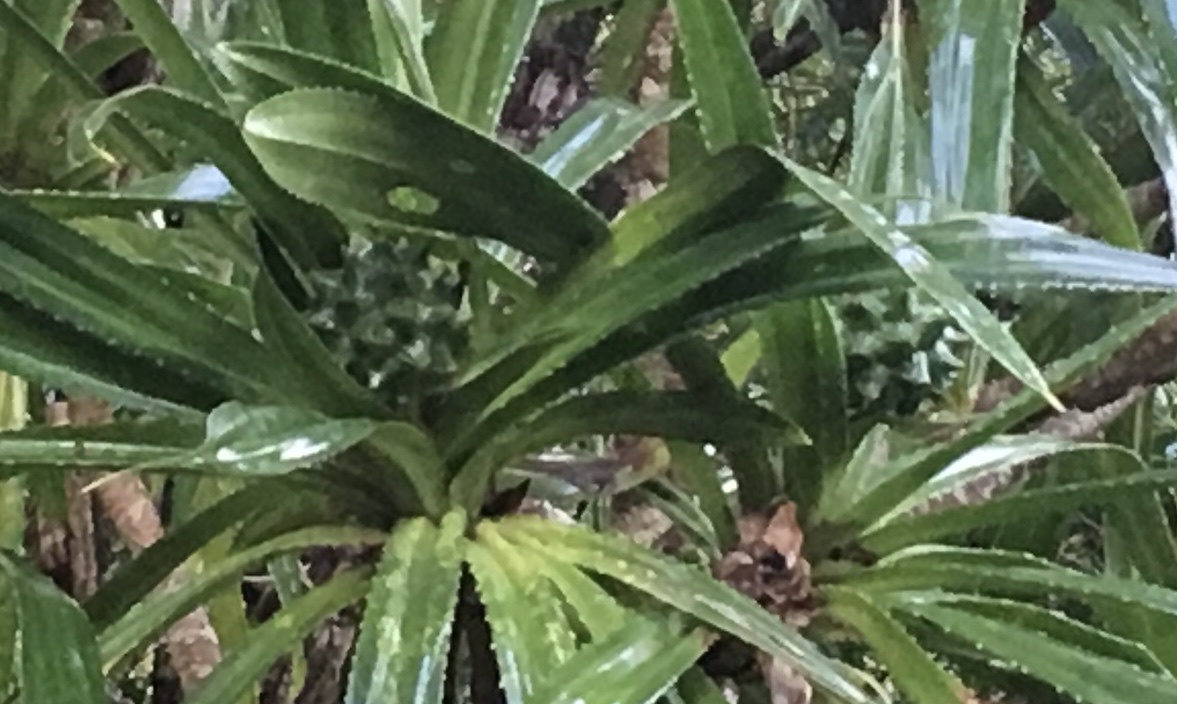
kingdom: Plantae
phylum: Tracheophyta
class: Liliopsida
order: Pandanales
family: Pandanaceae
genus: Pandanus
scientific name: Pandanus pervilleanus
